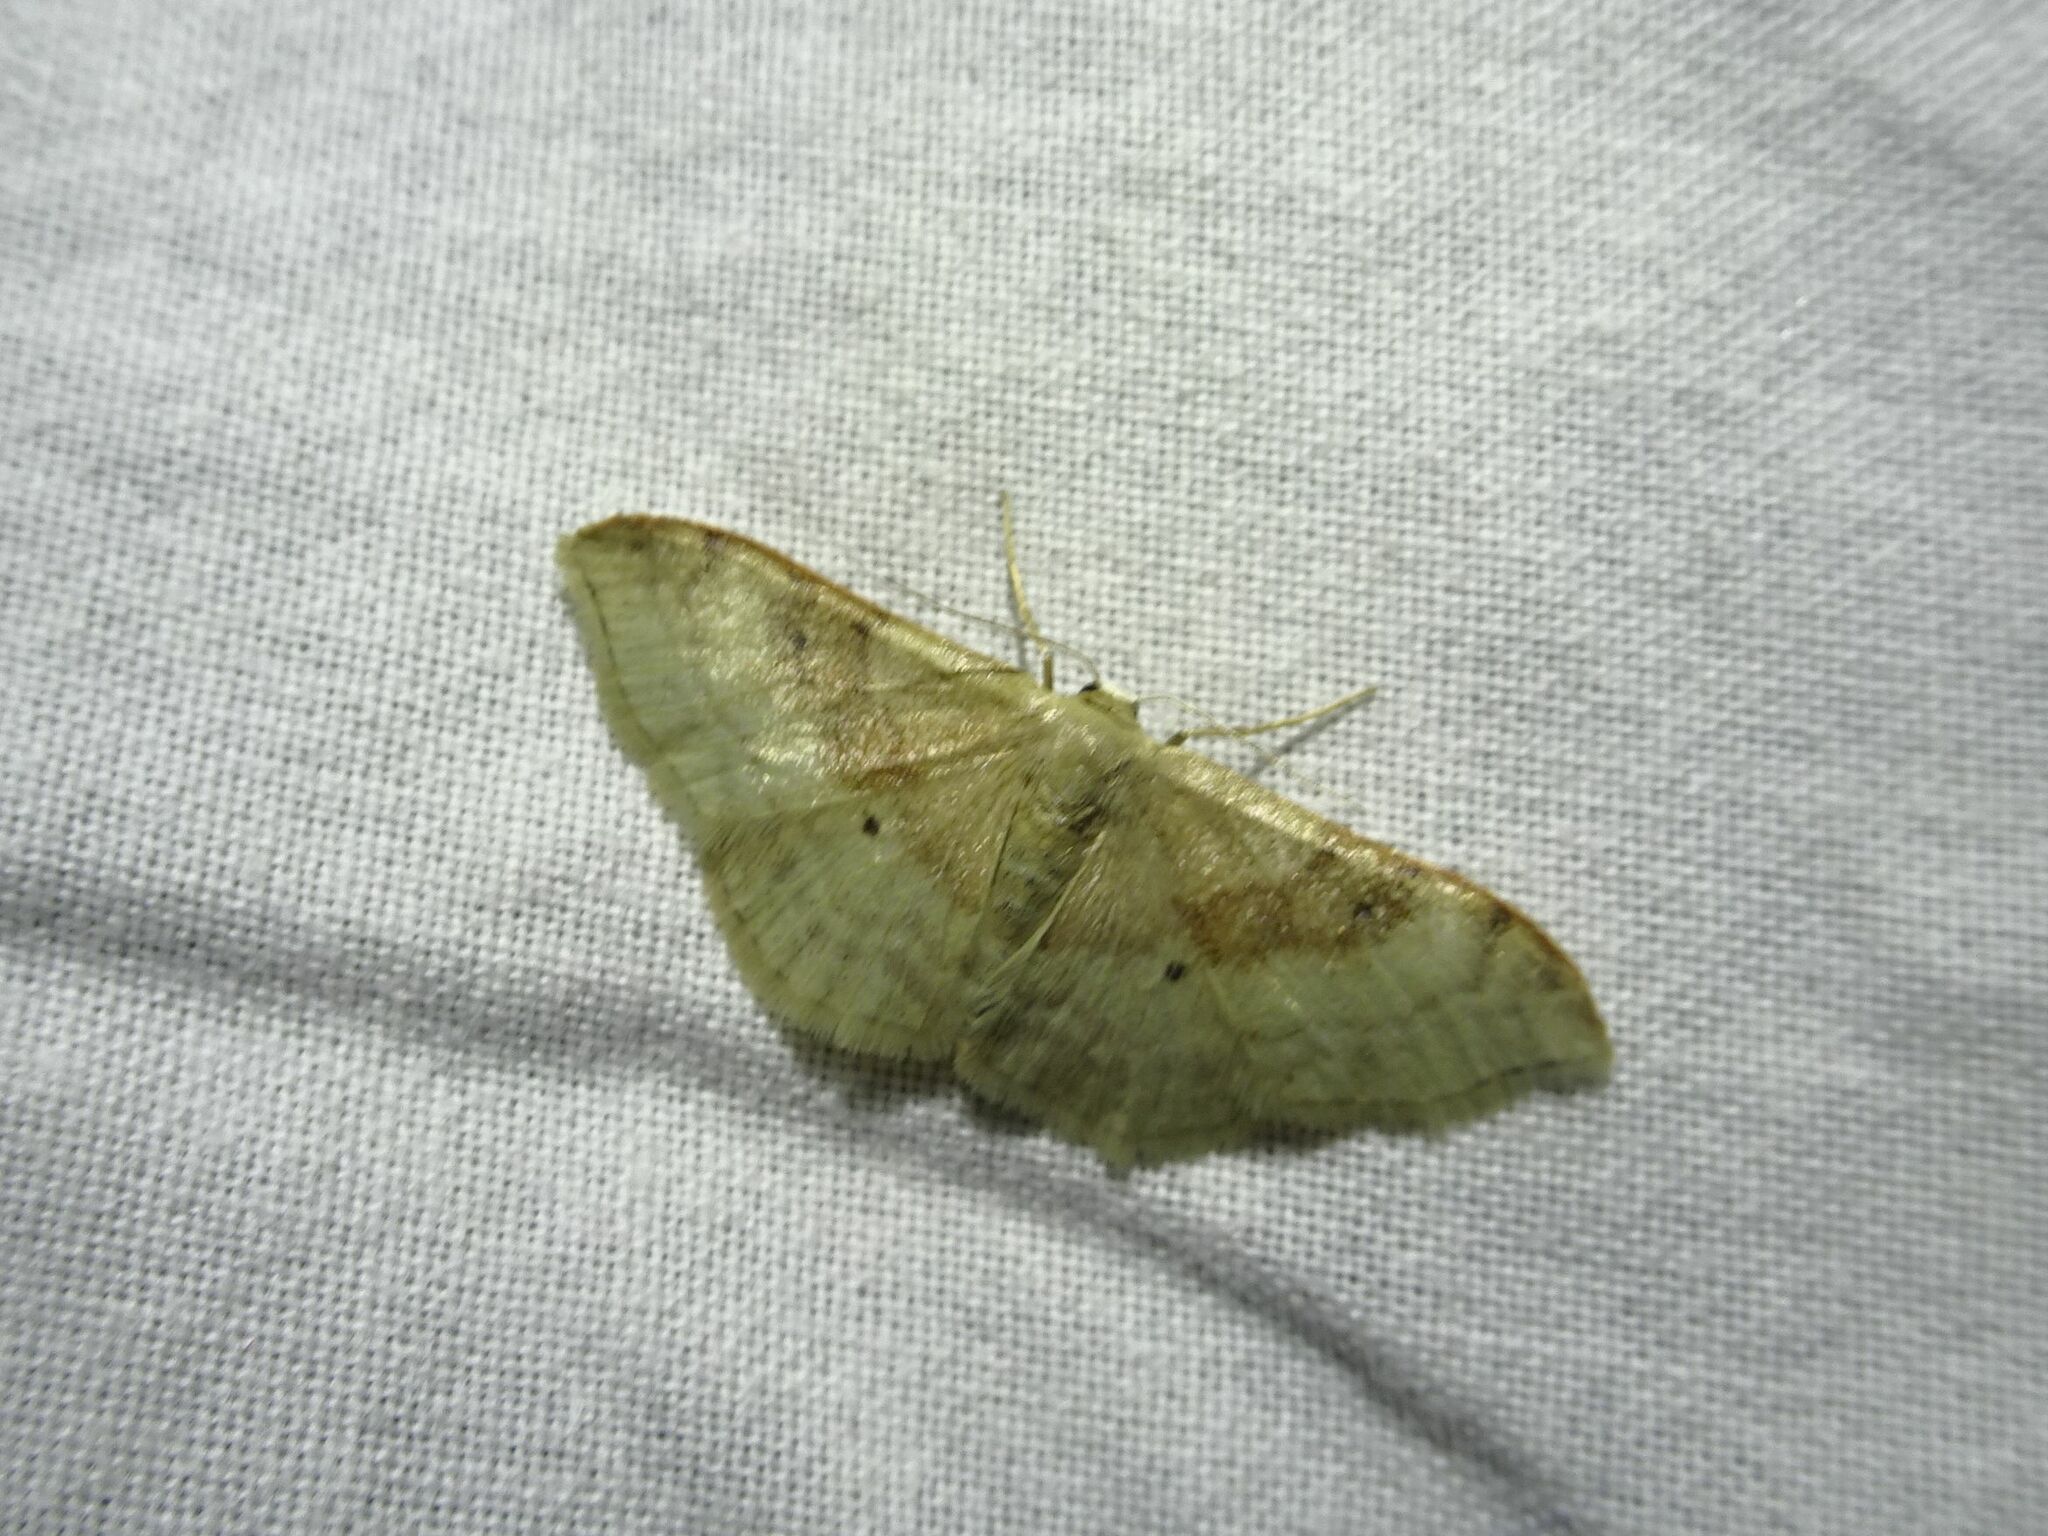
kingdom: Animalia
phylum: Arthropoda
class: Insecta
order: Lepidoptera
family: Geometridae
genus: Idaea
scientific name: Idaea degeneraria
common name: Portland ribbon wave
